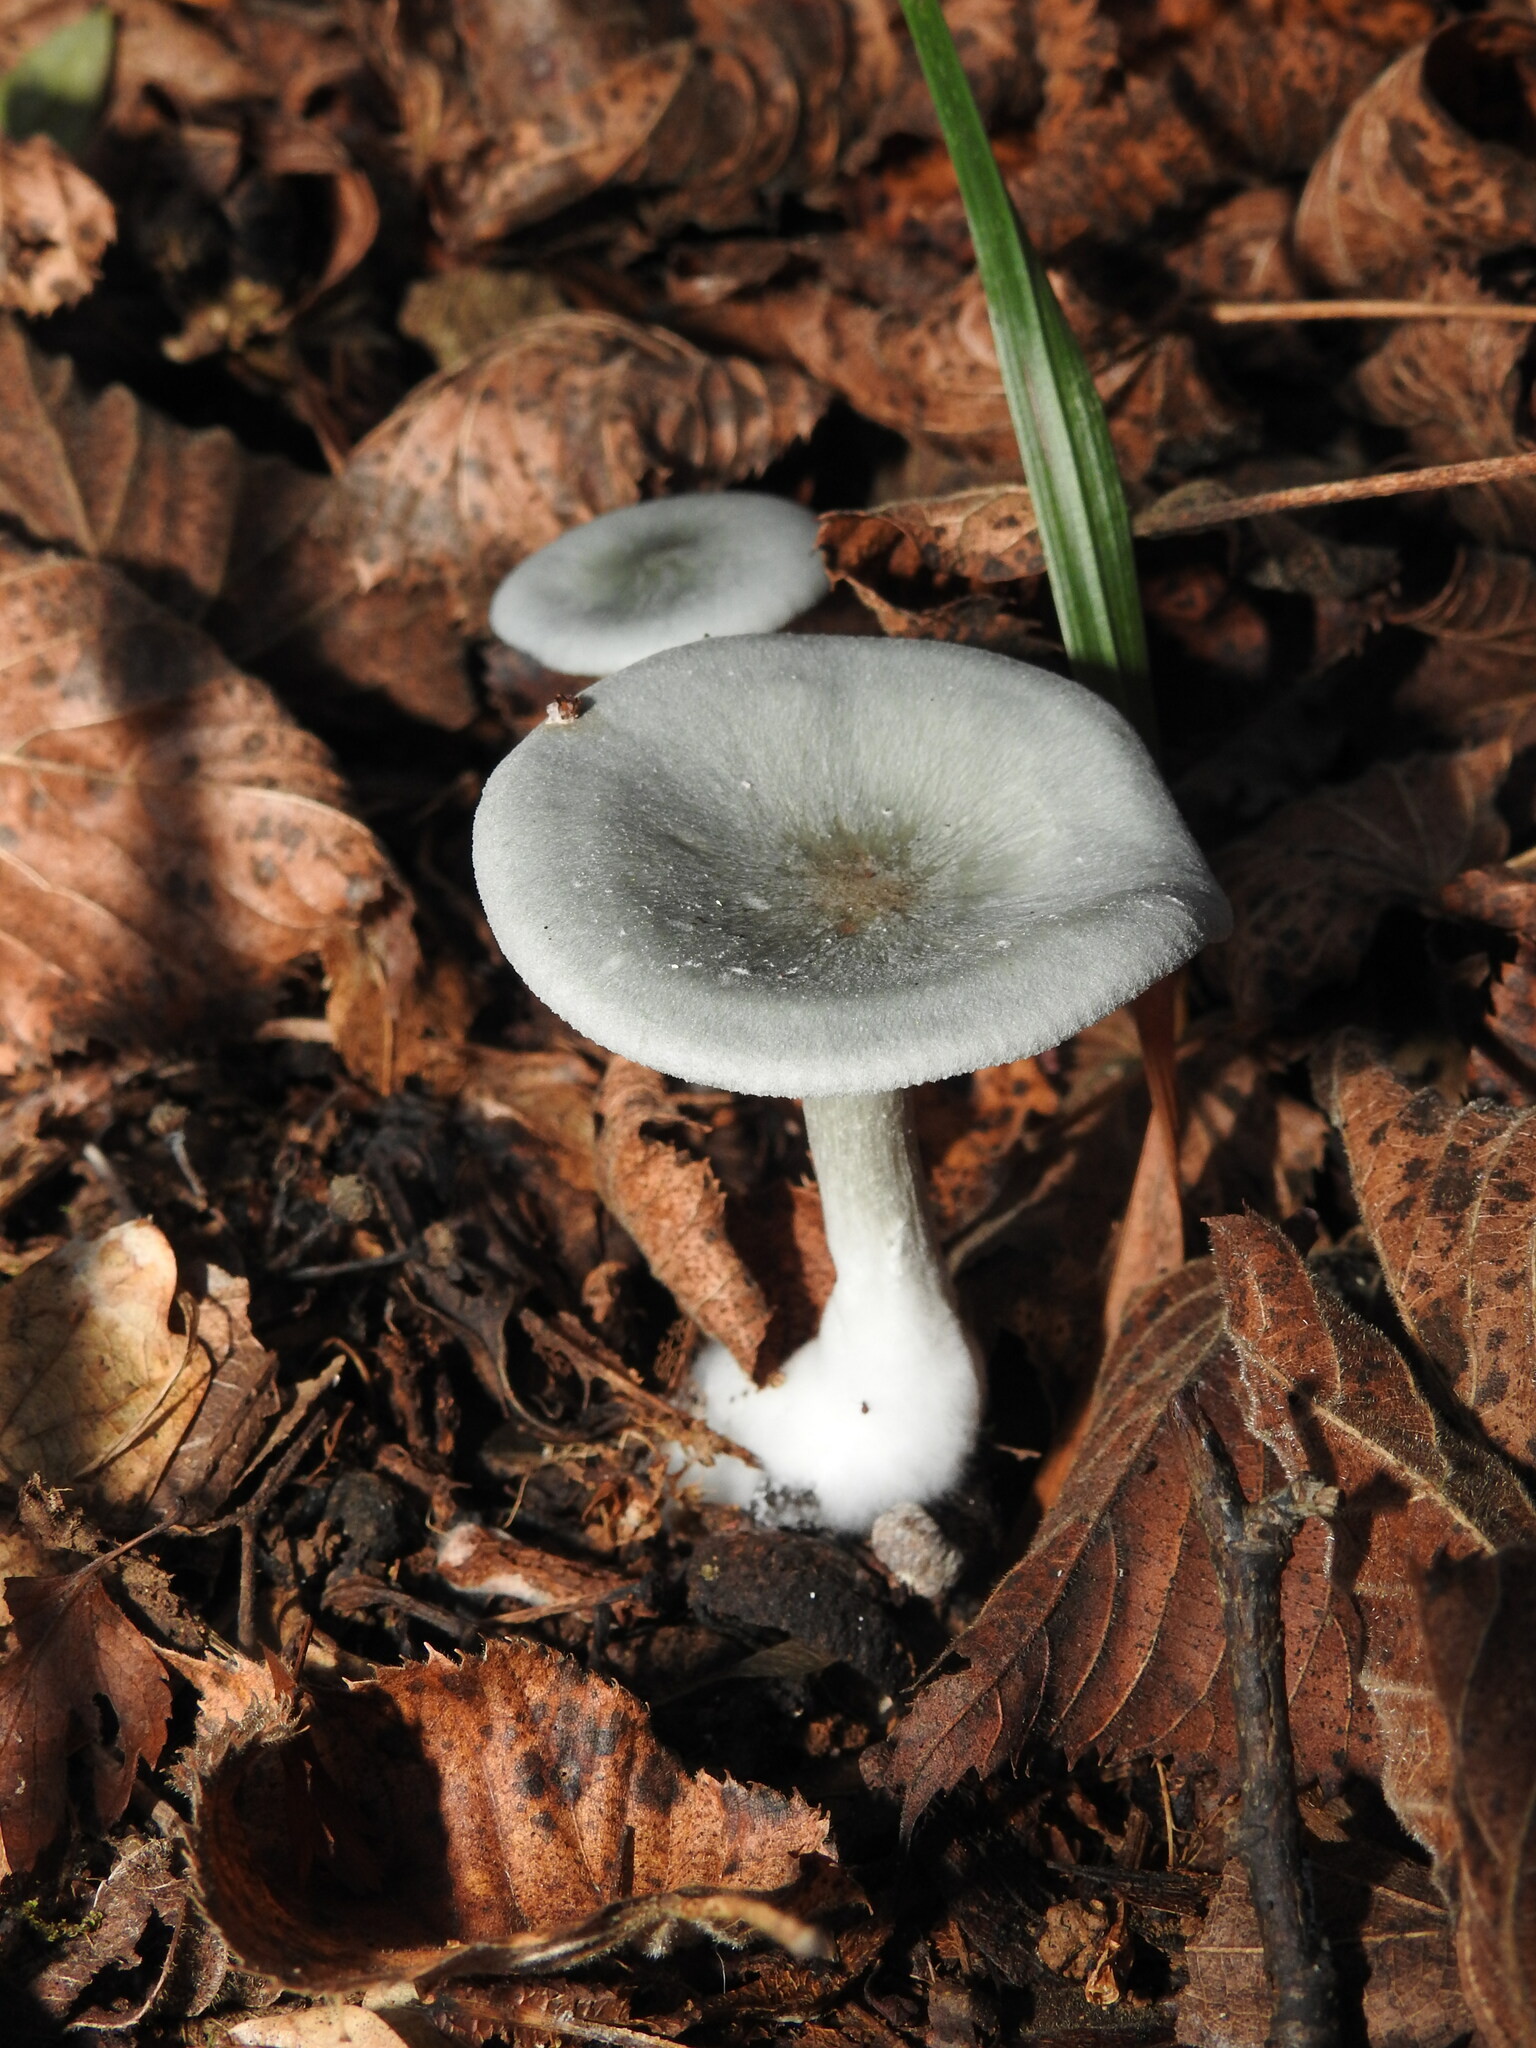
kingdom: Fungi
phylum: Basidiomycota
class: Agaricomycetes
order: Agaricales
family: Tricholomataceae
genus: Collybia
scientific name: Collybia
